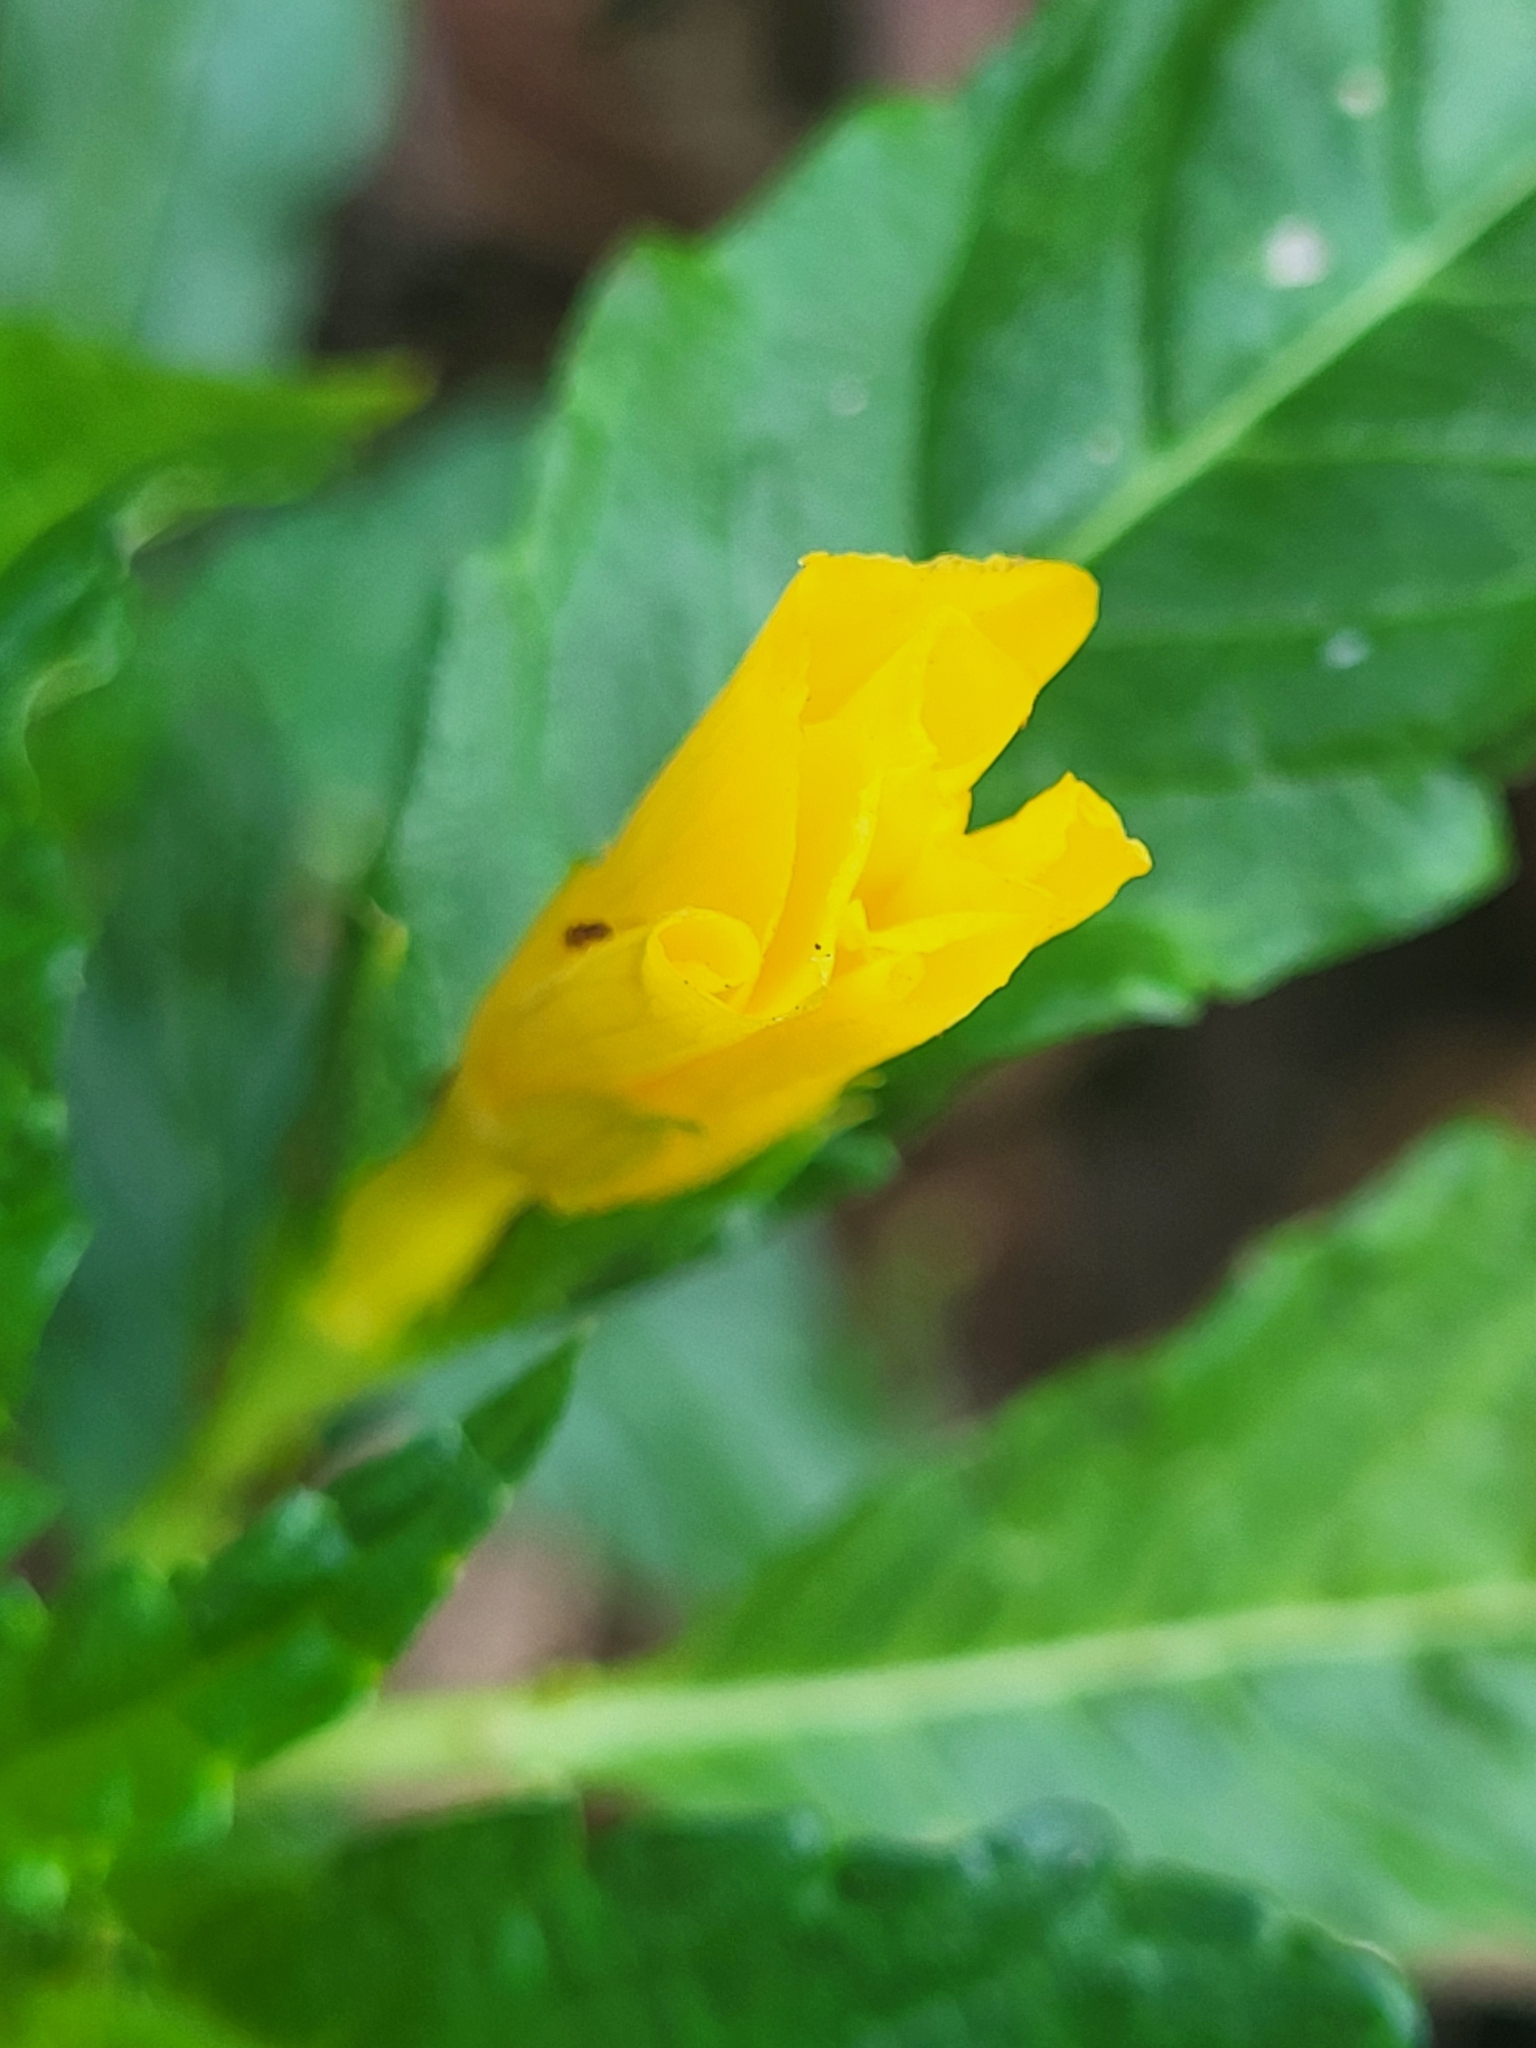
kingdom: Plantae
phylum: Tracheophyta
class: Magnoliopsida
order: Malpighiales
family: Turneraceae
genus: Turnera
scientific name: Turnera ulmifolia
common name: Ramgoat dashalong
